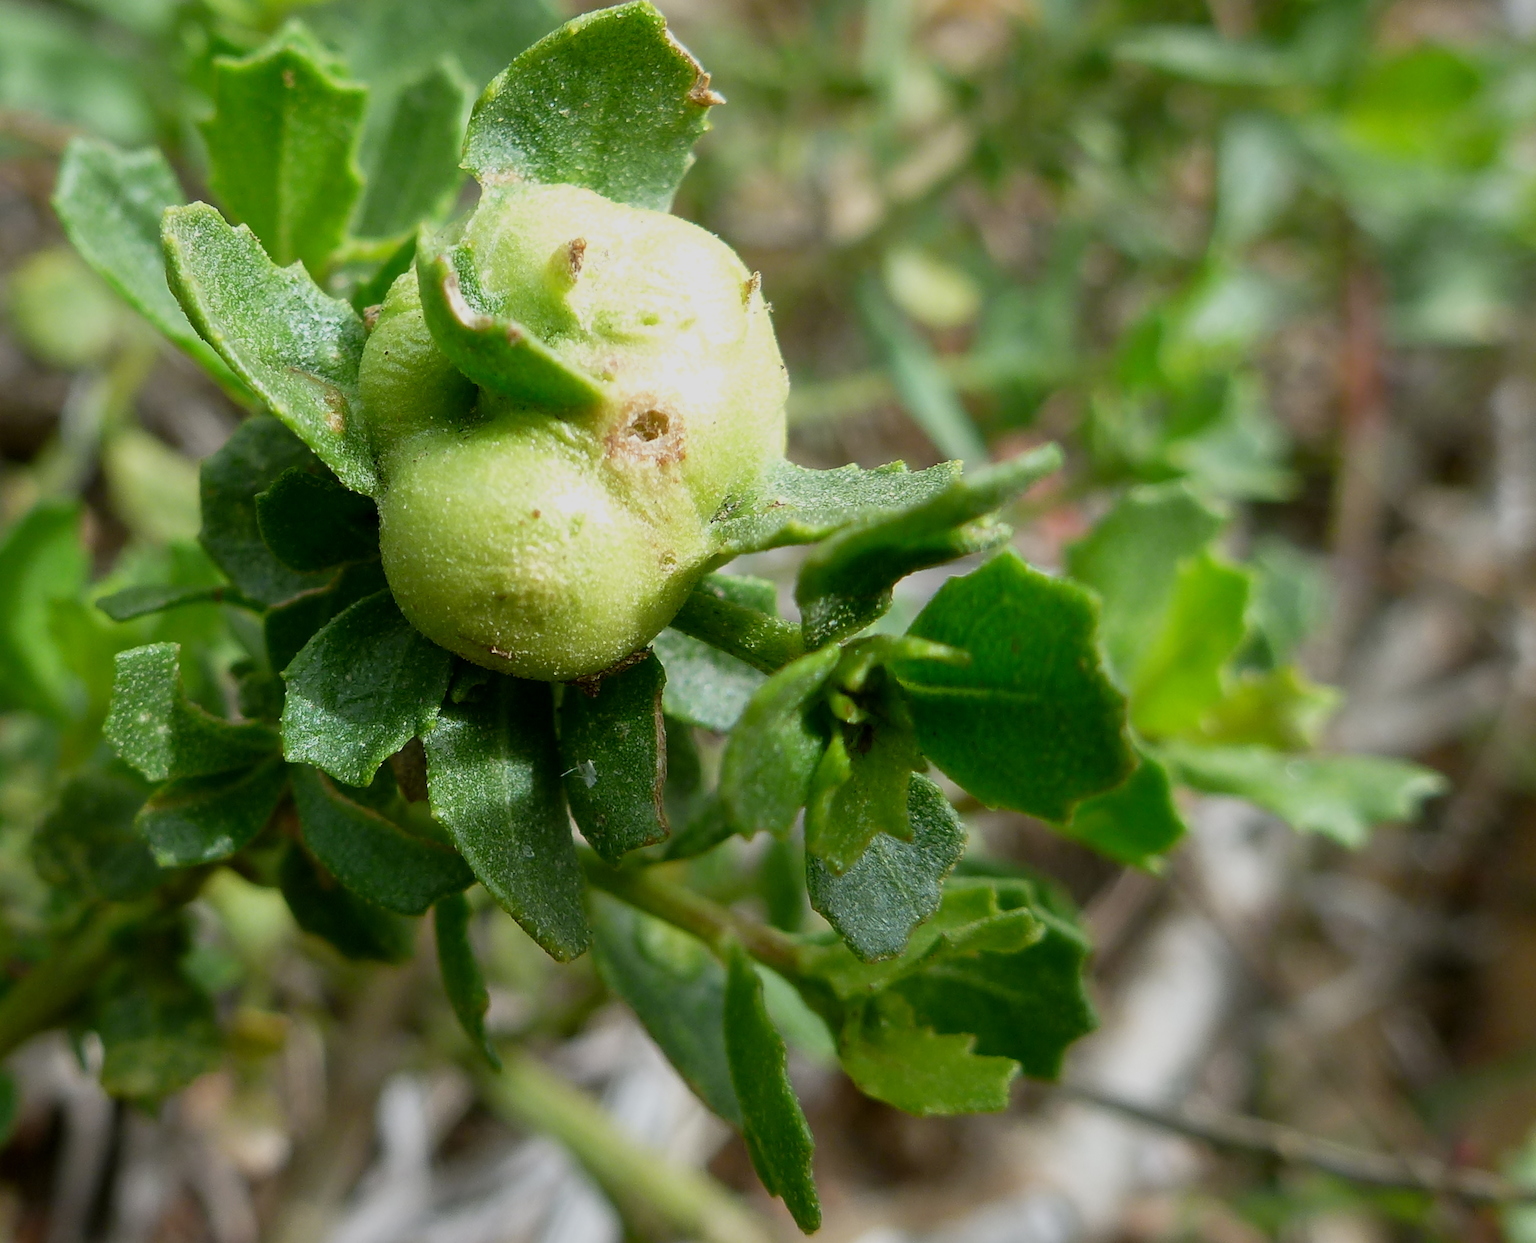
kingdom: Animalia
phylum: Arthropoda
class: Insecta
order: Diptera
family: Cecidomyiidae
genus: Rhopalomyia
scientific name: Rhopalomyia californica
